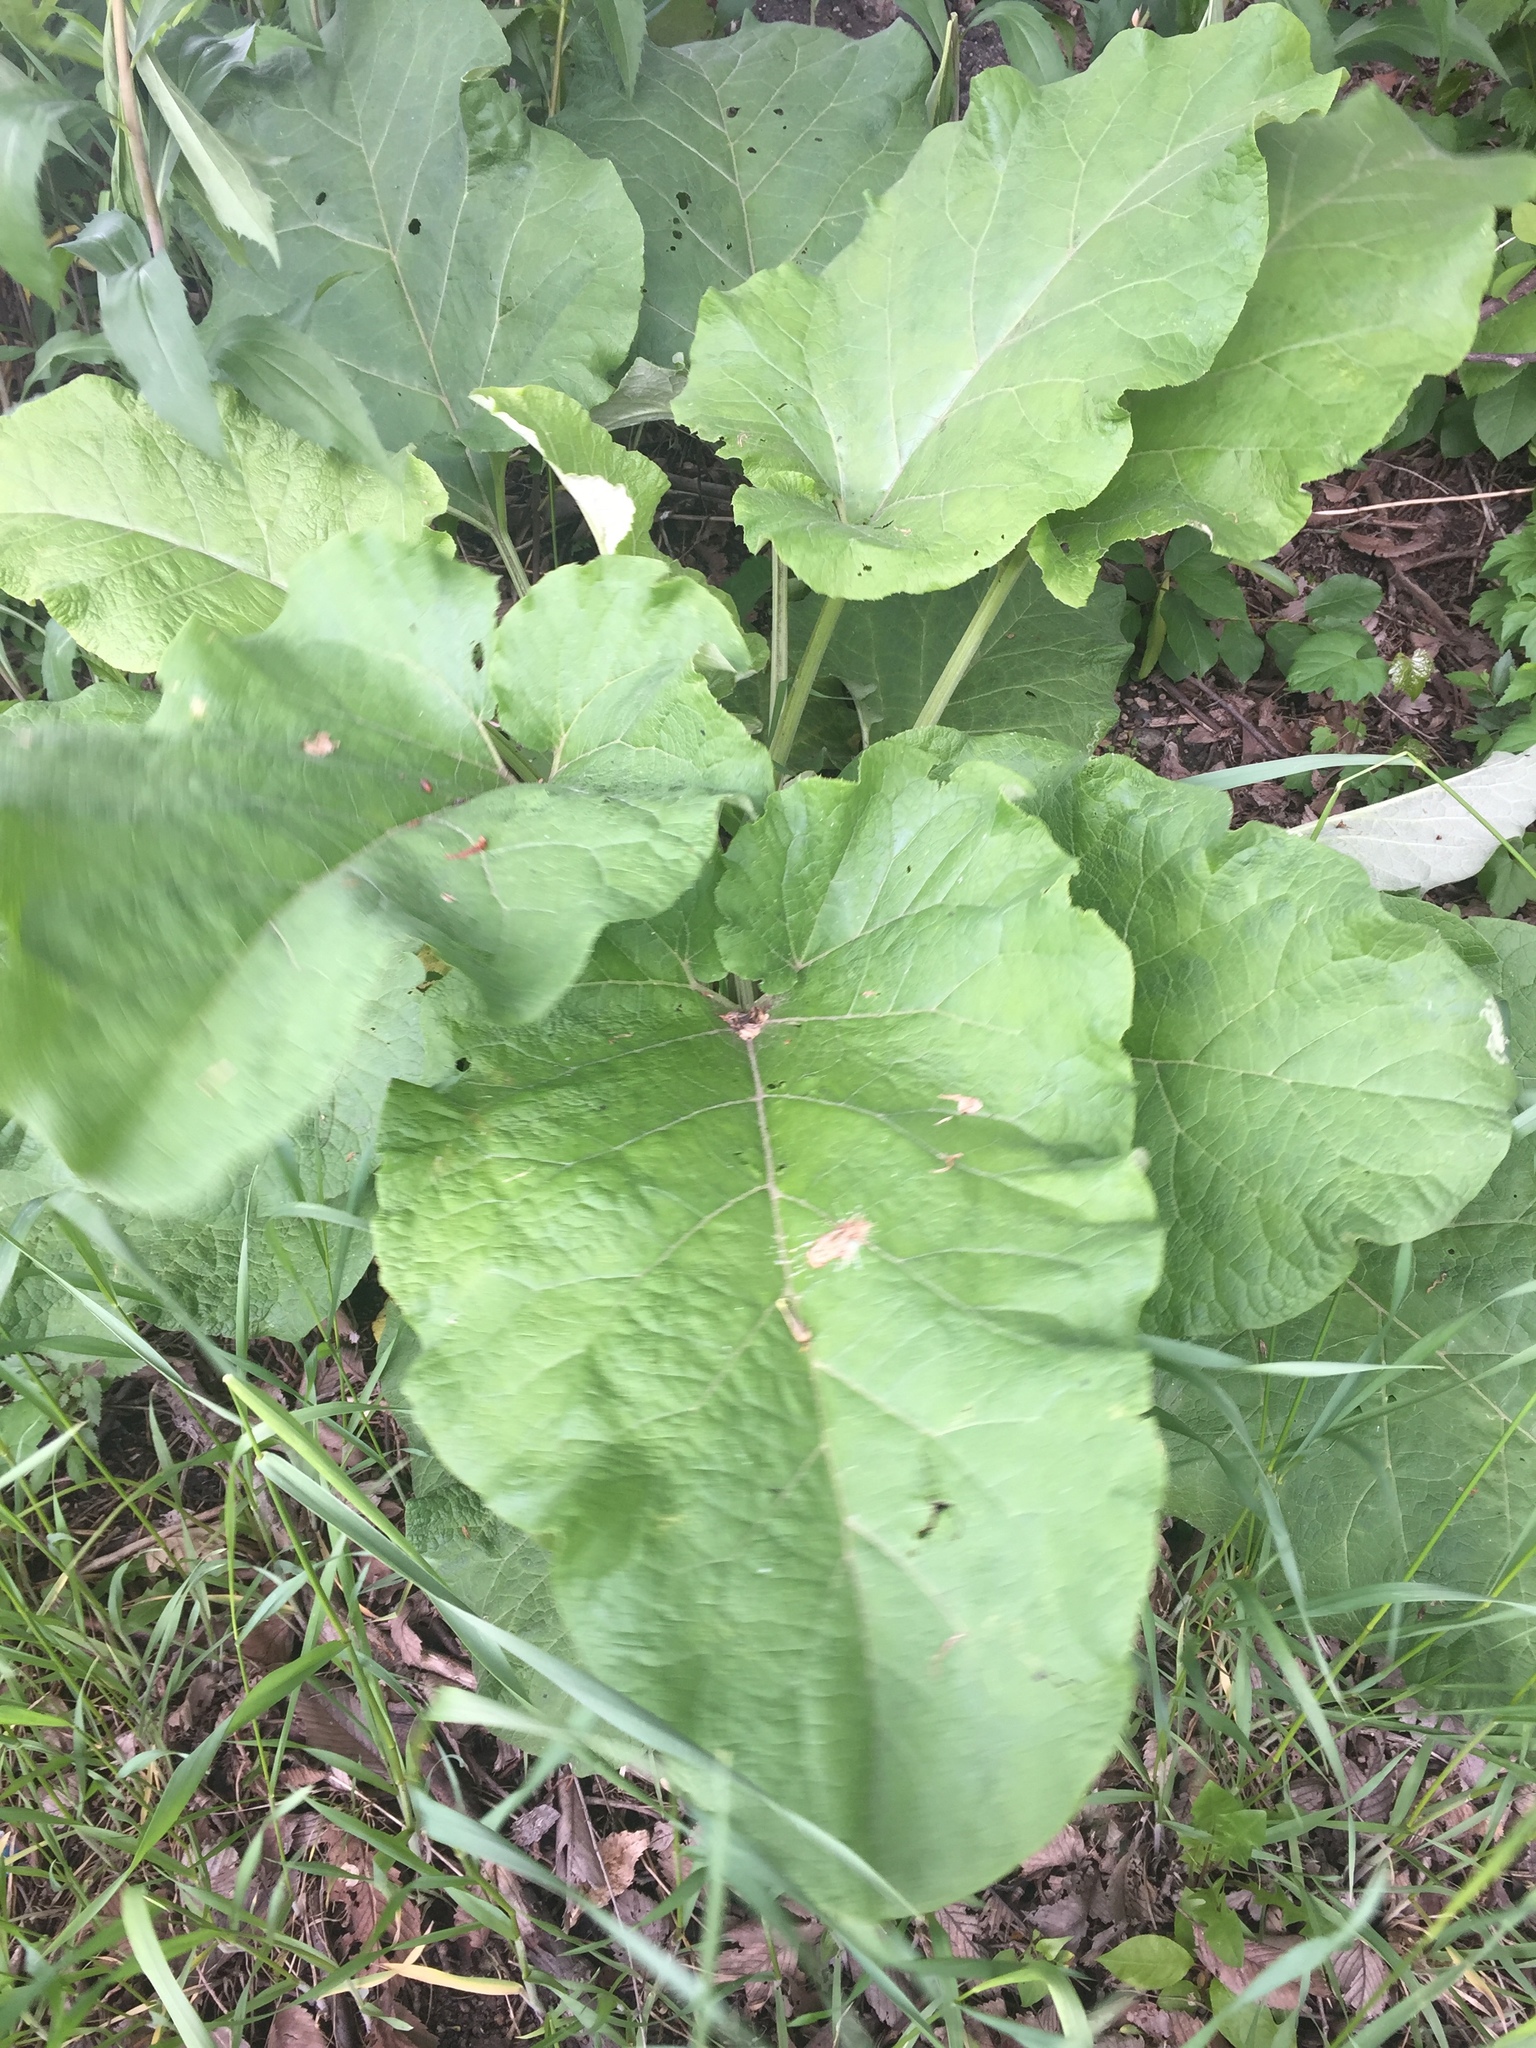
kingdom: Plantae
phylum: Tracheophyta
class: Magnoliopsida
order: Asterales
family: Asteraceae
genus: Arctium
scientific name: Arctium minus
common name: Lesser burdock
